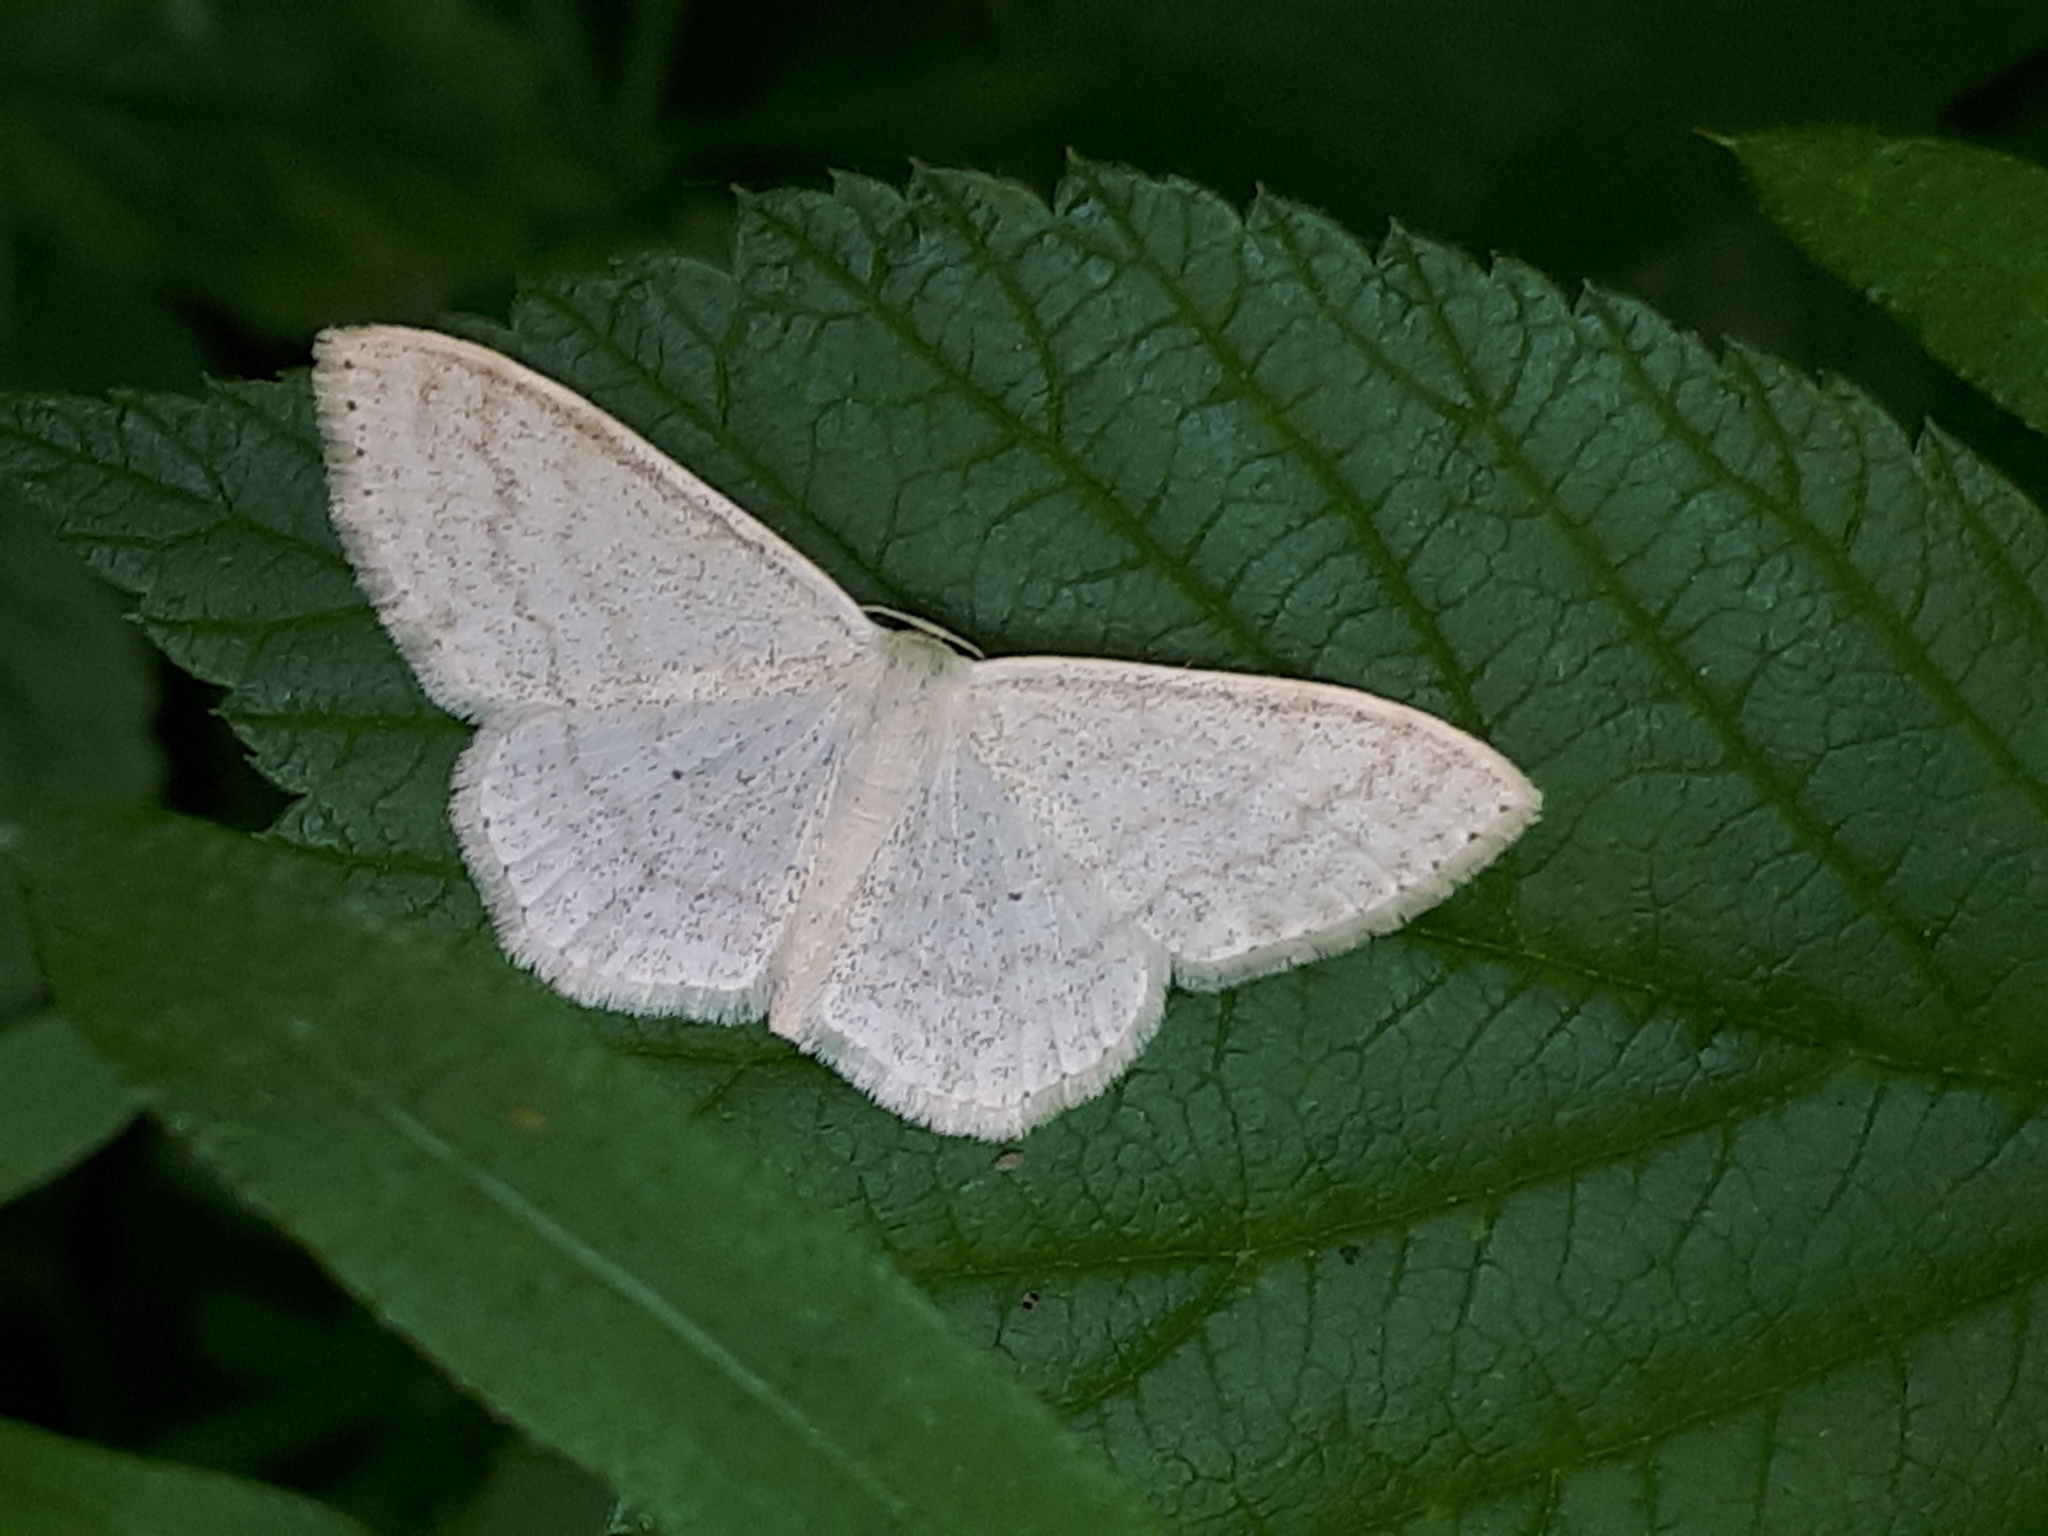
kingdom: Animalia
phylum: Arthropoda
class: Insecta
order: Lepidoptera
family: Geometridae
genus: Scopula
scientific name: Scopula floslactata
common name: Cream wave
